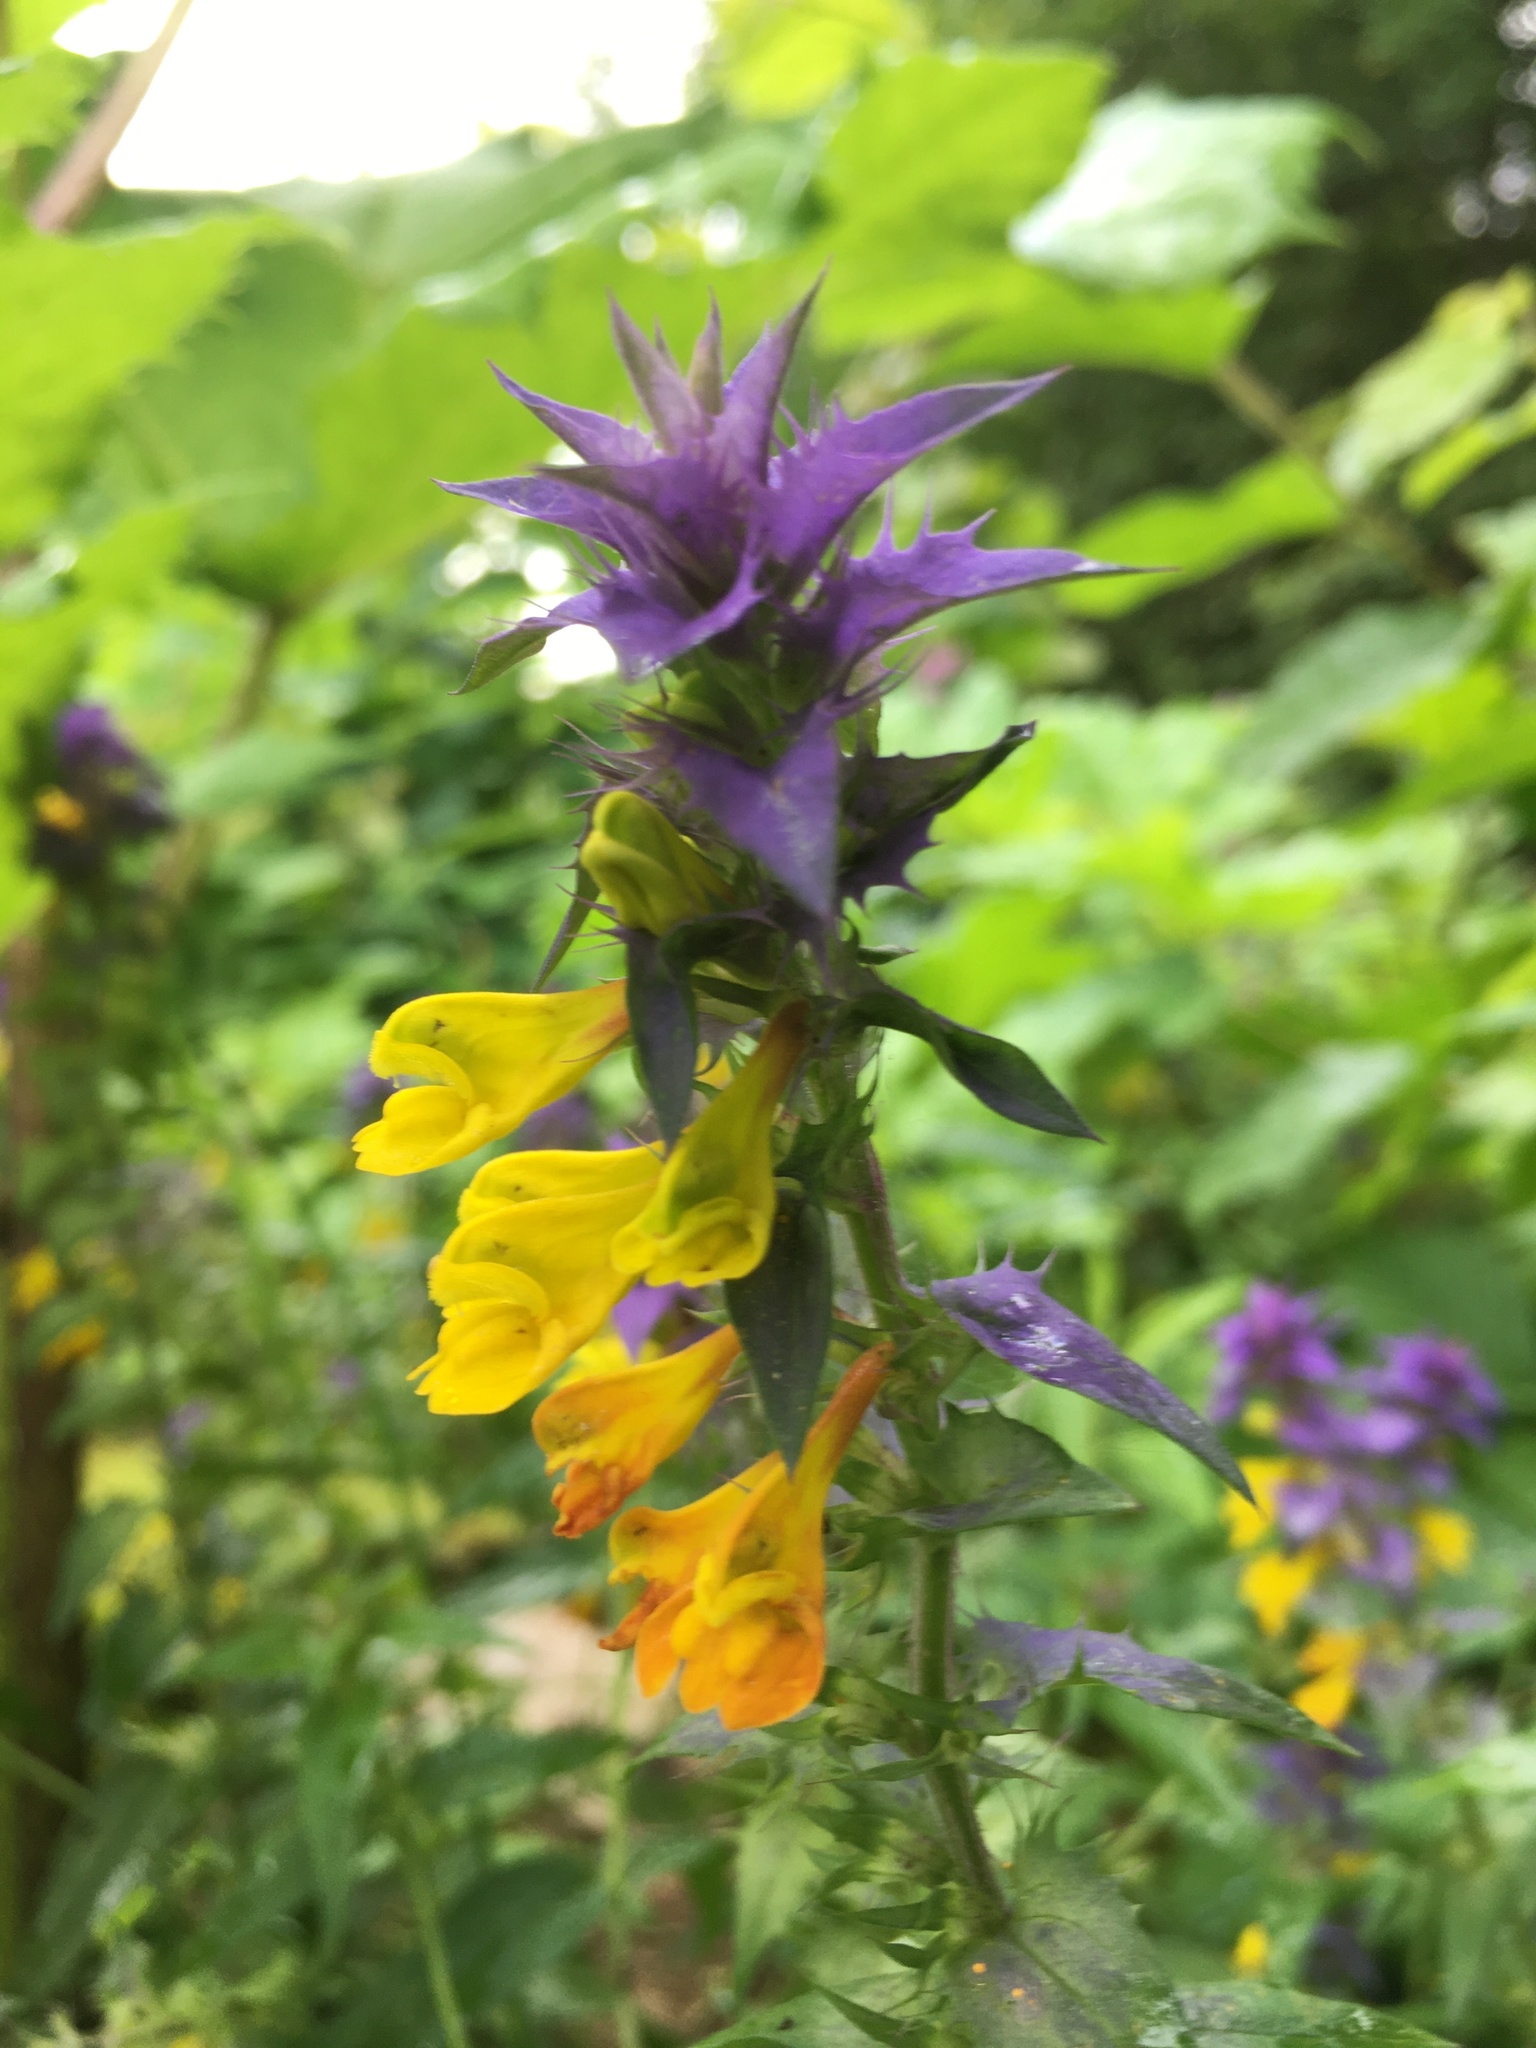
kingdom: Plantae
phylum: Tracheophyta
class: Magnoliopsida
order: Lamiales
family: Orobanchaceae
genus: Melampyrum
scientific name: Melampyrum nemorosum
